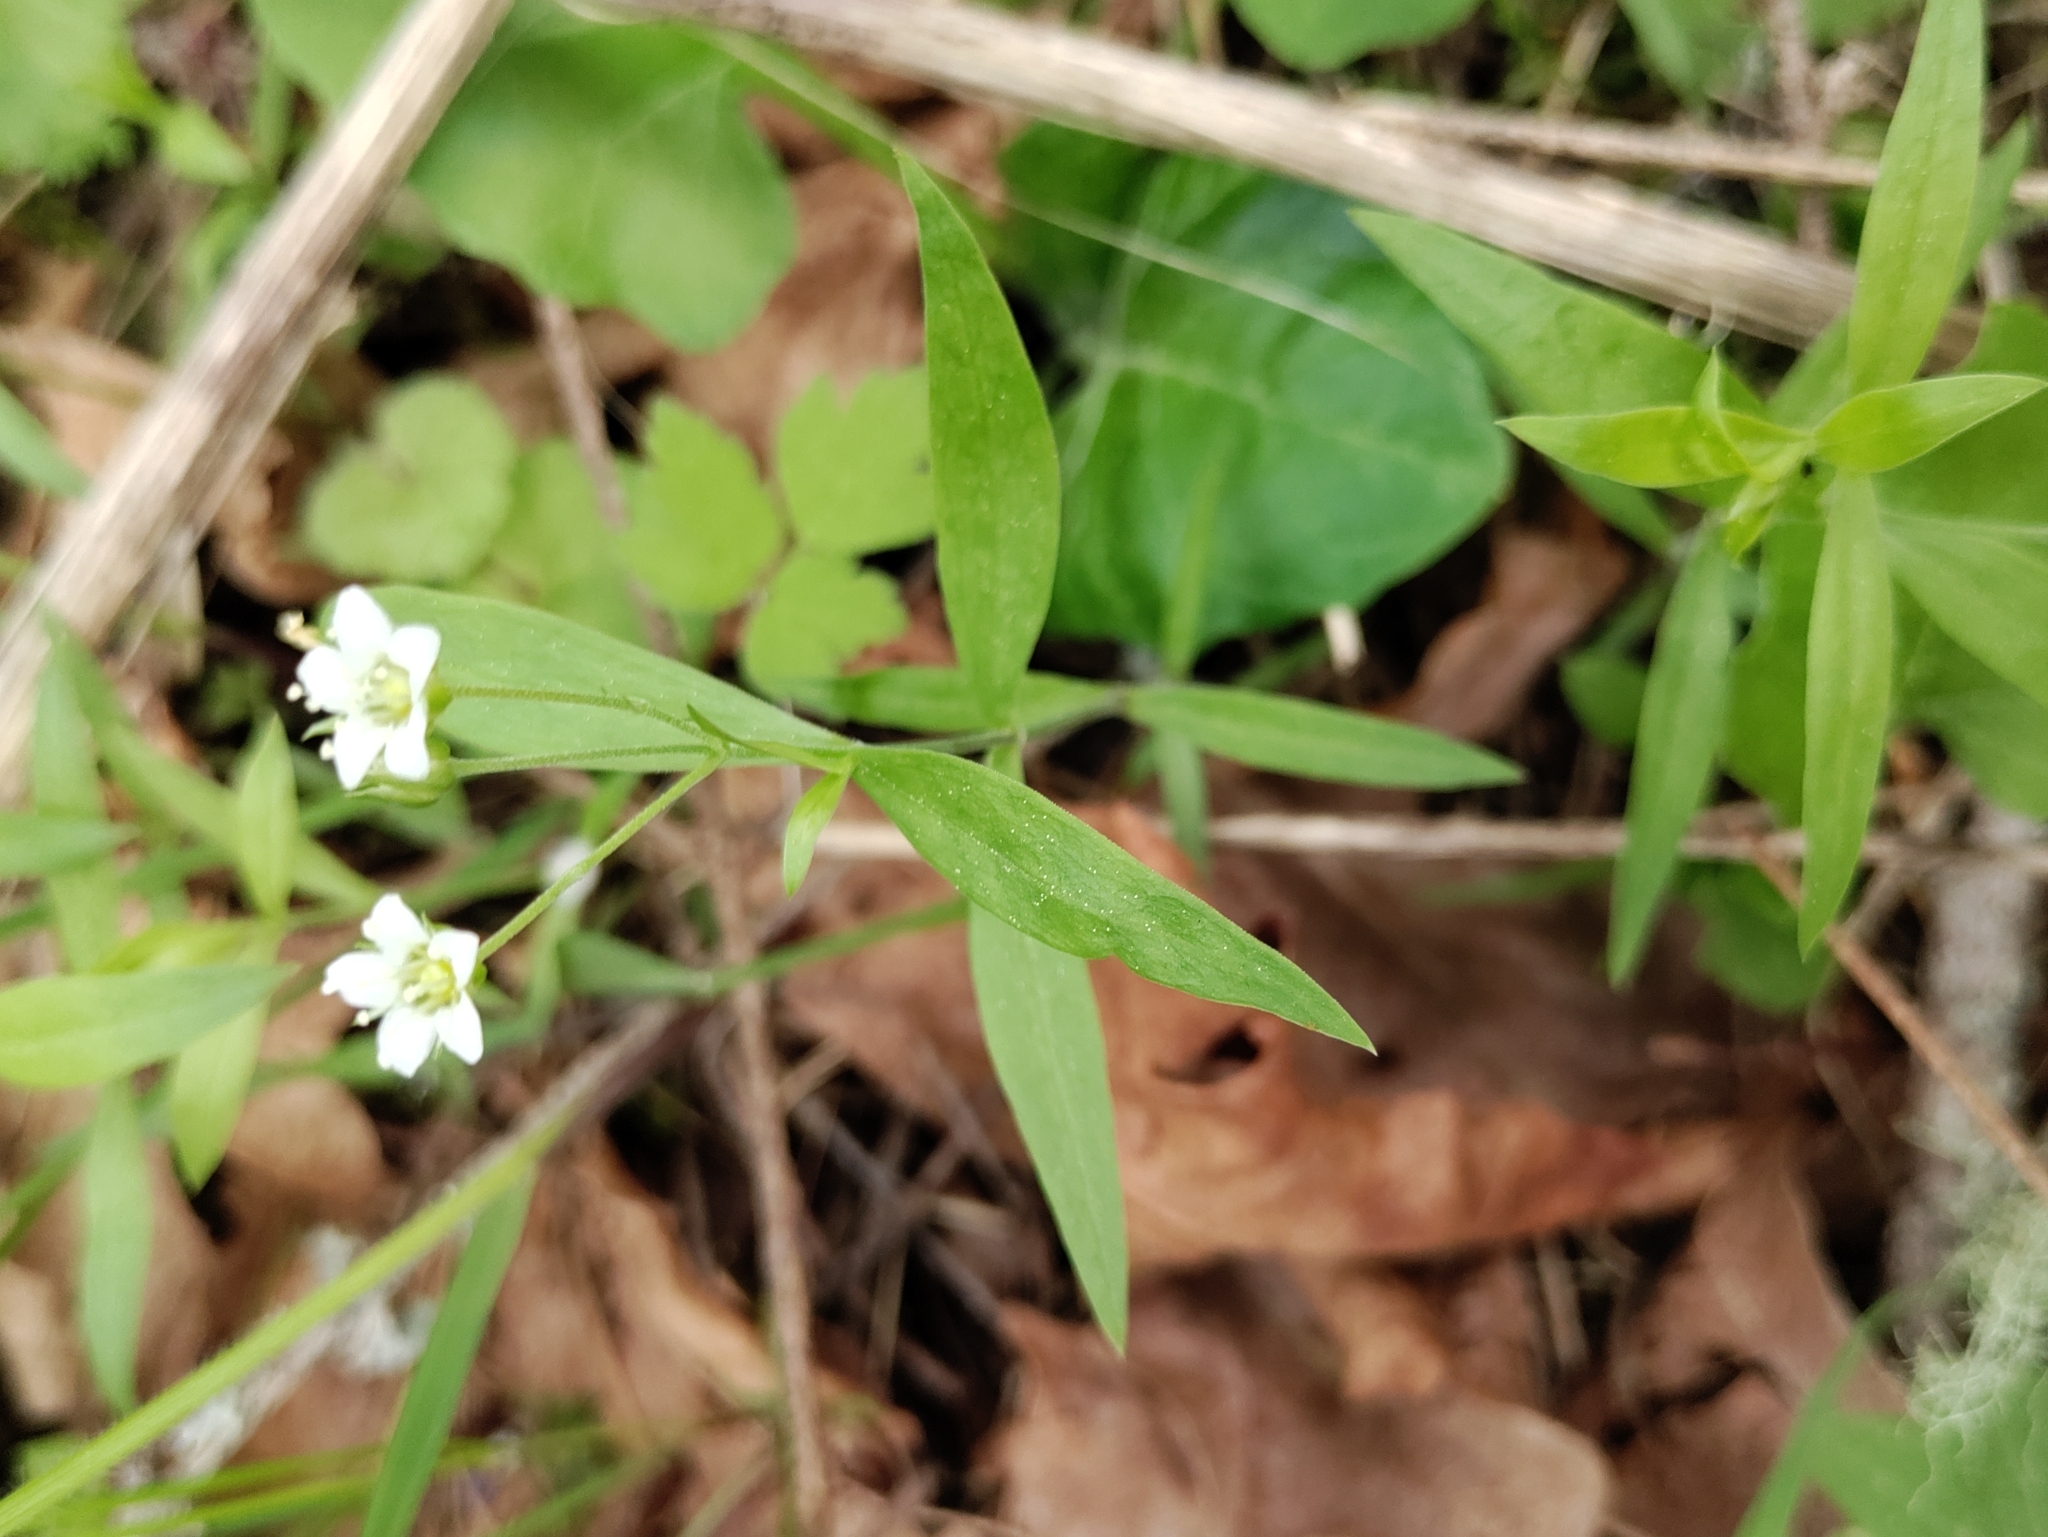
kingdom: Plantae
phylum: Tracheophyta
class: Magnoliopsida
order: Caryophyllales
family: Caryophyllaceae
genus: Moehringia
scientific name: Moehringia macrophylla
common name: Big-leaf sandwort
